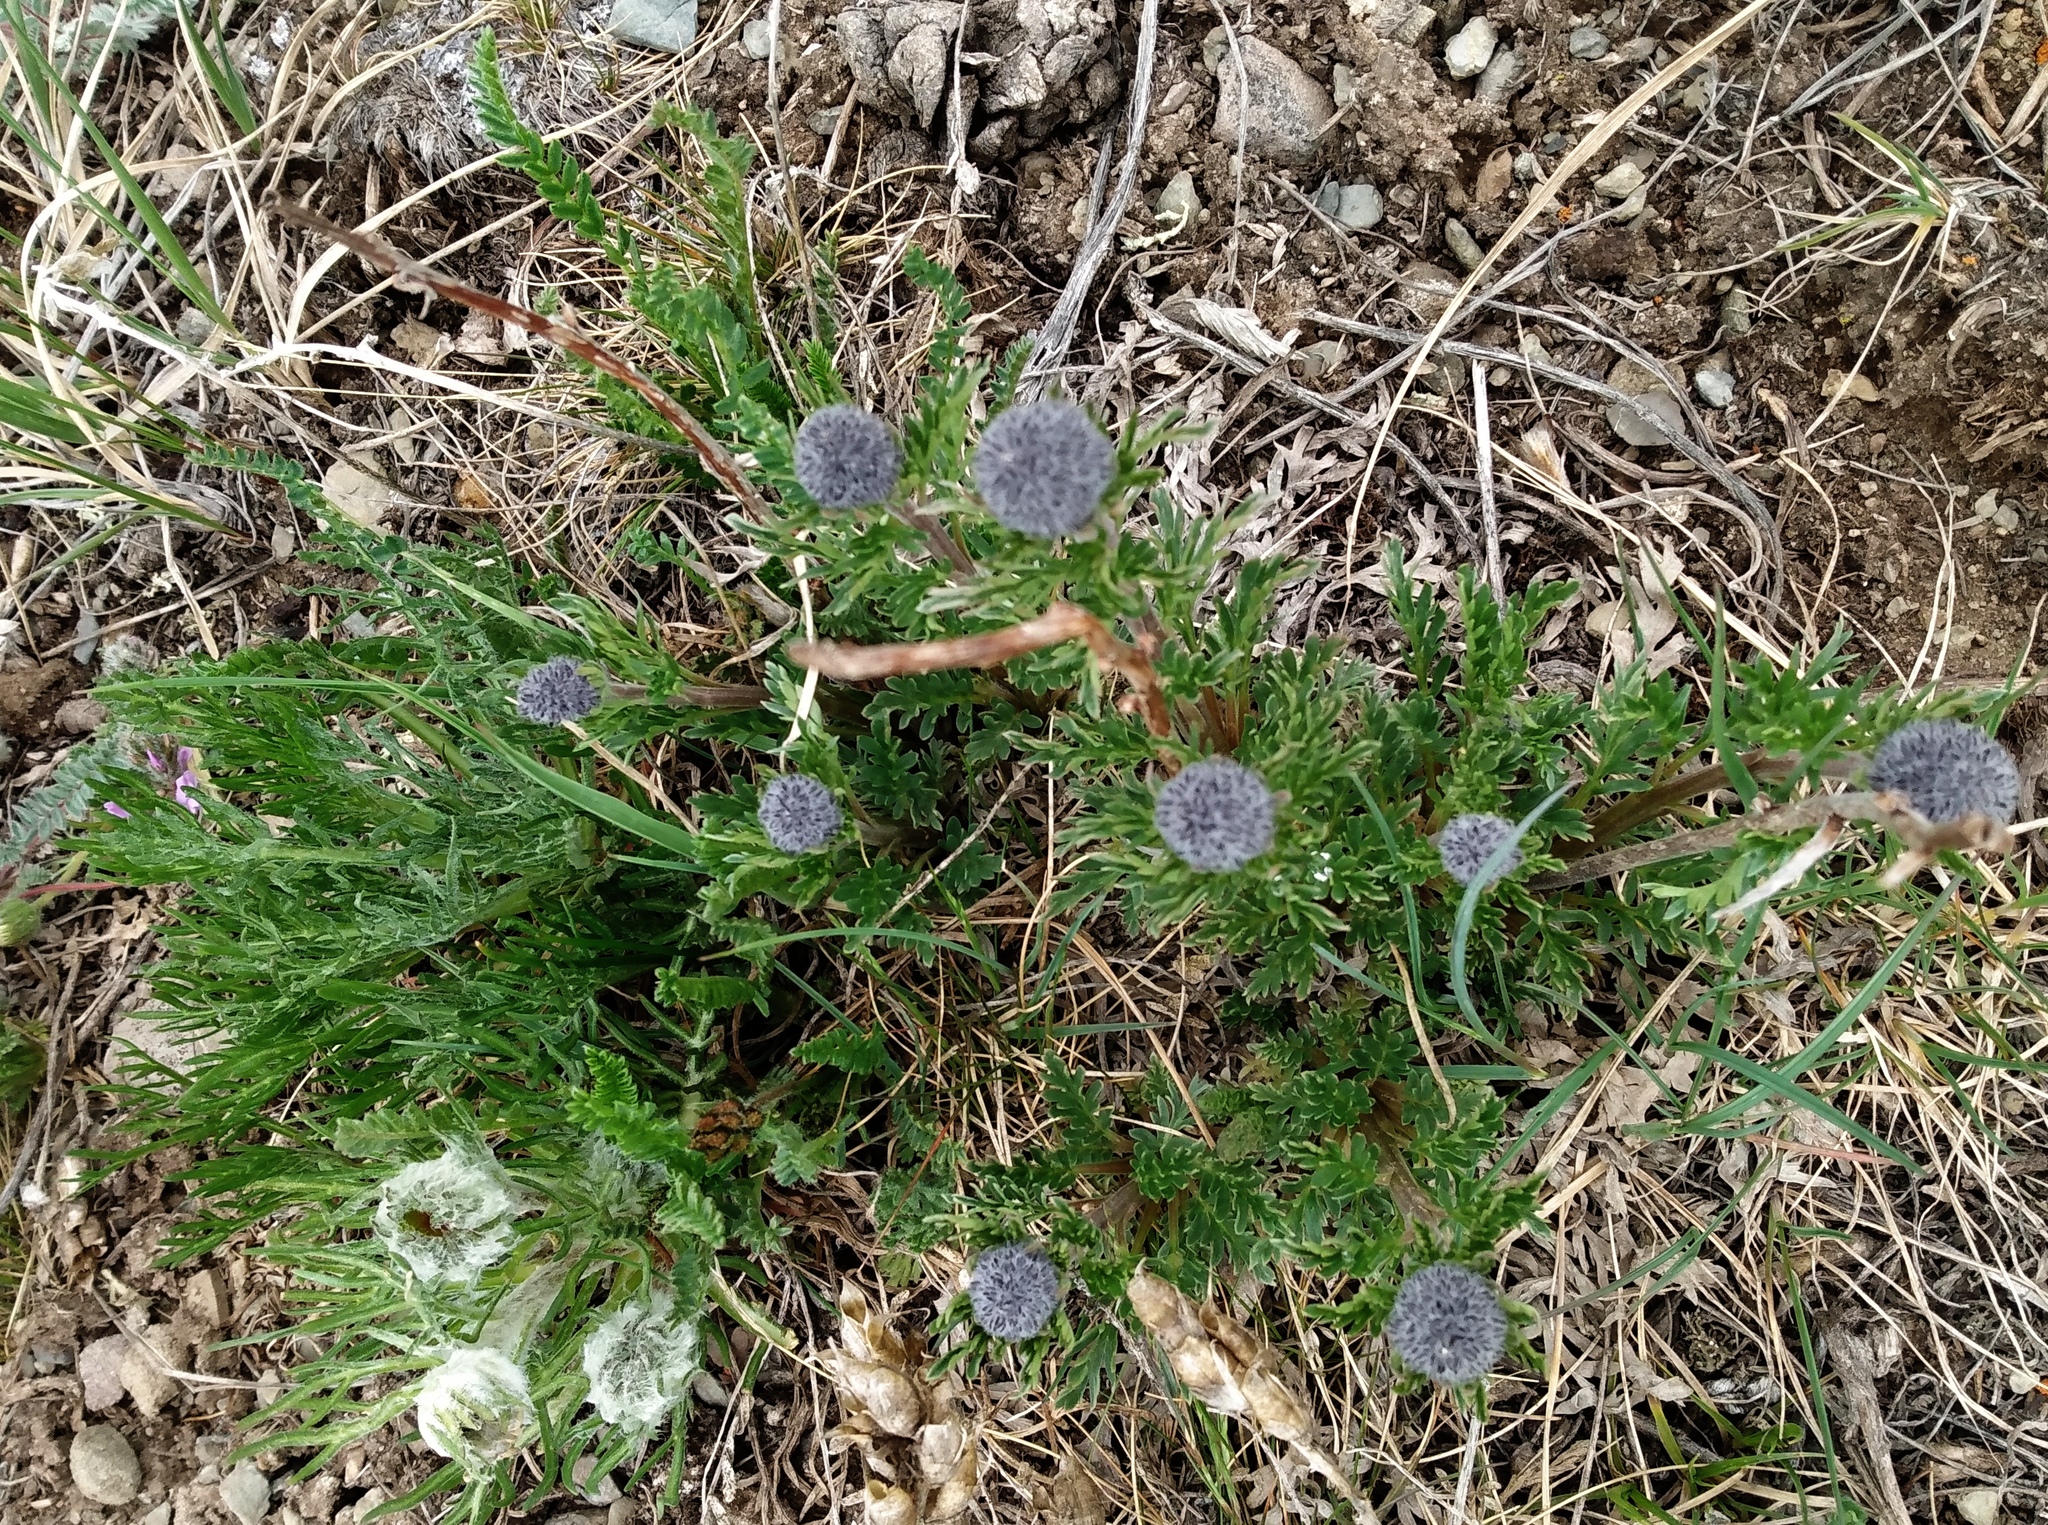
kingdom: Plantae
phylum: Tracheophyta
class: Magnoliopsida
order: Boraginales
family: Hydrophyllaceae
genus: Phacelia
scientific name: Phacelia sericea
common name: Silky phacelia
